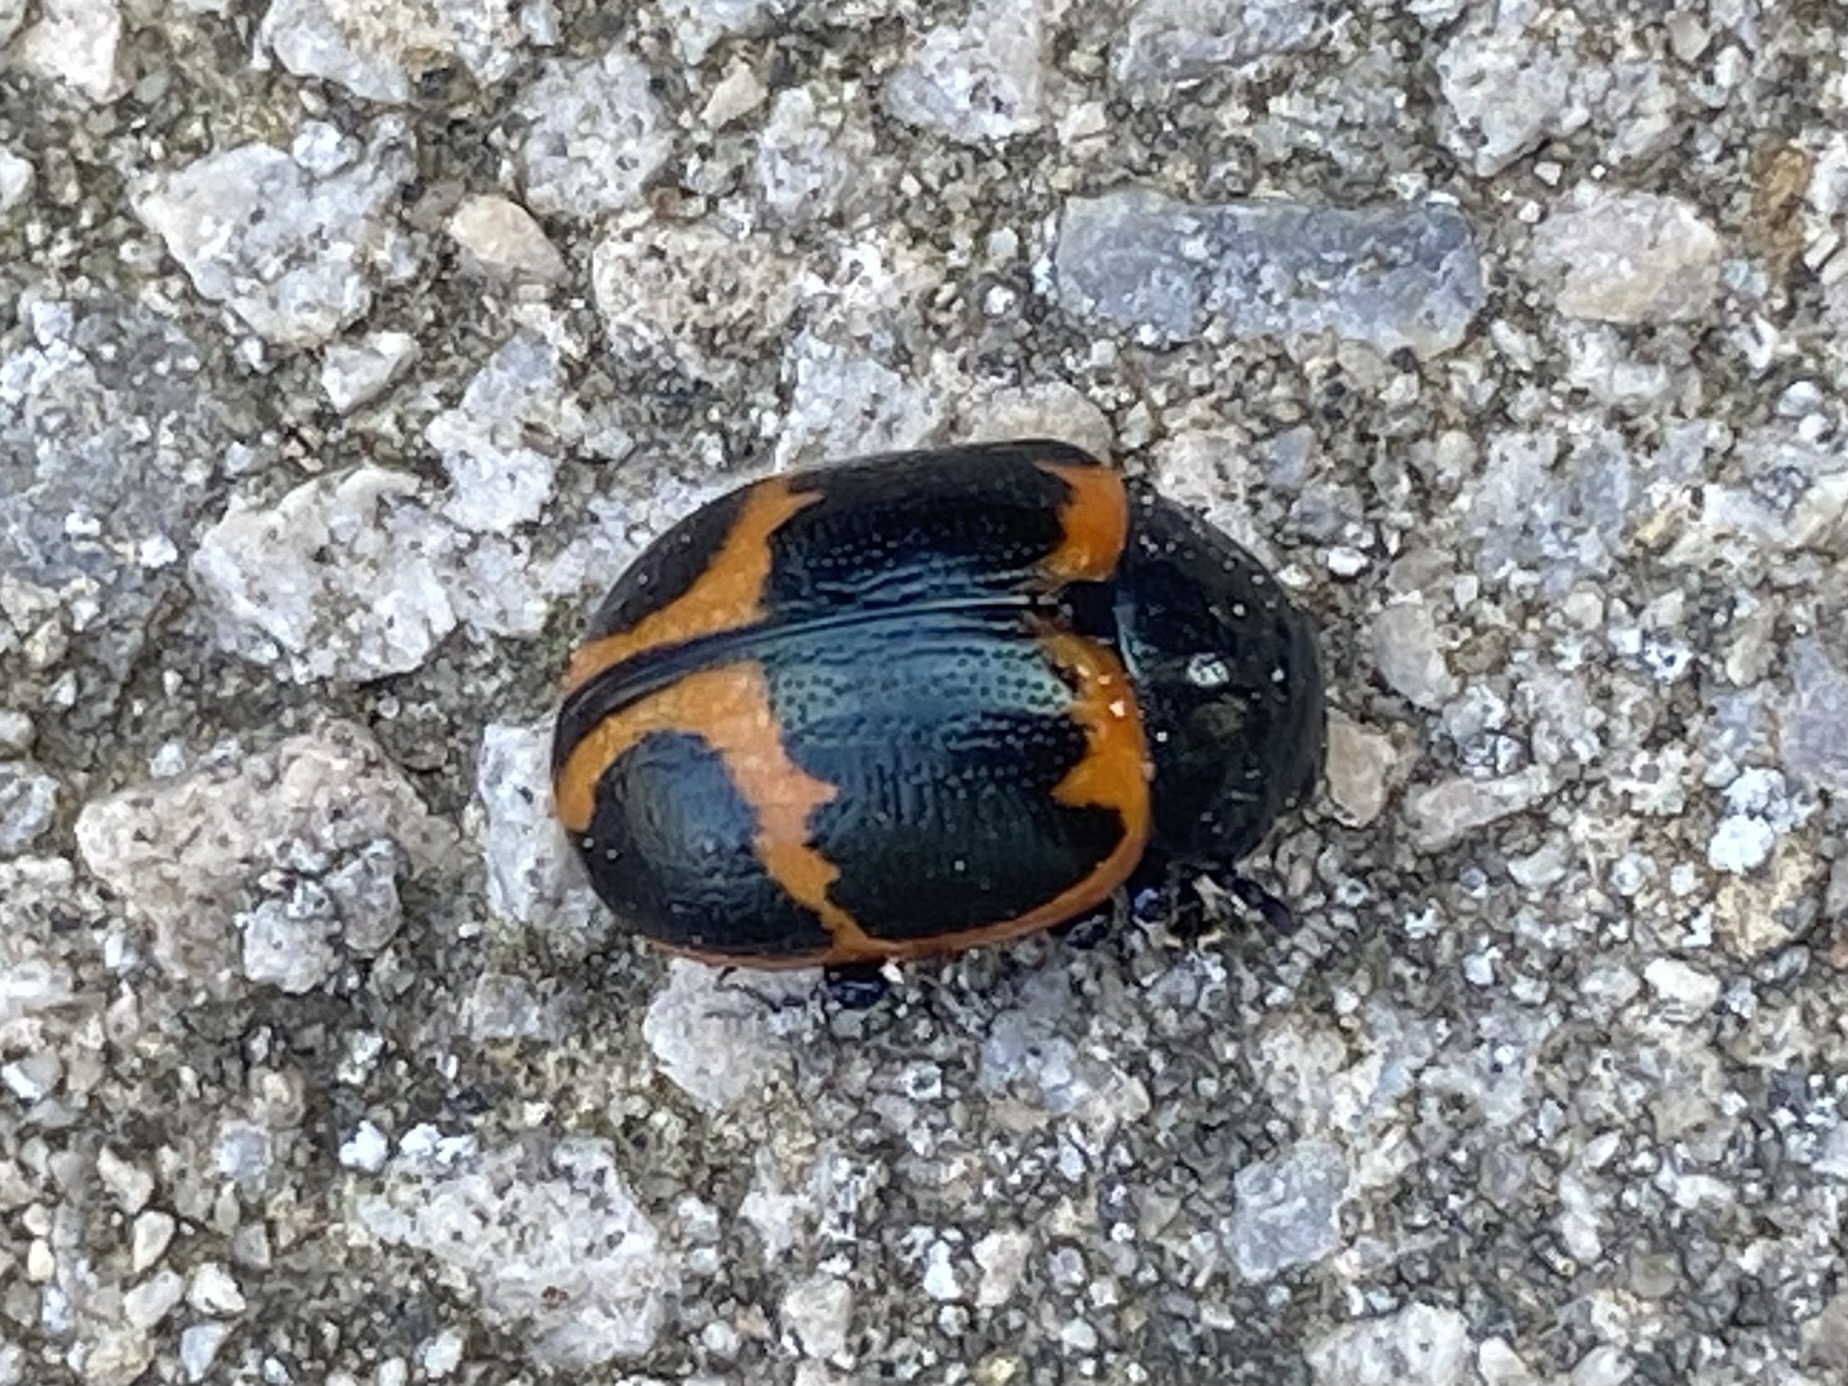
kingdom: Animalia
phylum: Arthropoda
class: Insecta
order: Coleoptera
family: Chrysomelidae
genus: Labidomera
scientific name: Labidomera clivicollis
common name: Swamp milkweed leaf beetle
